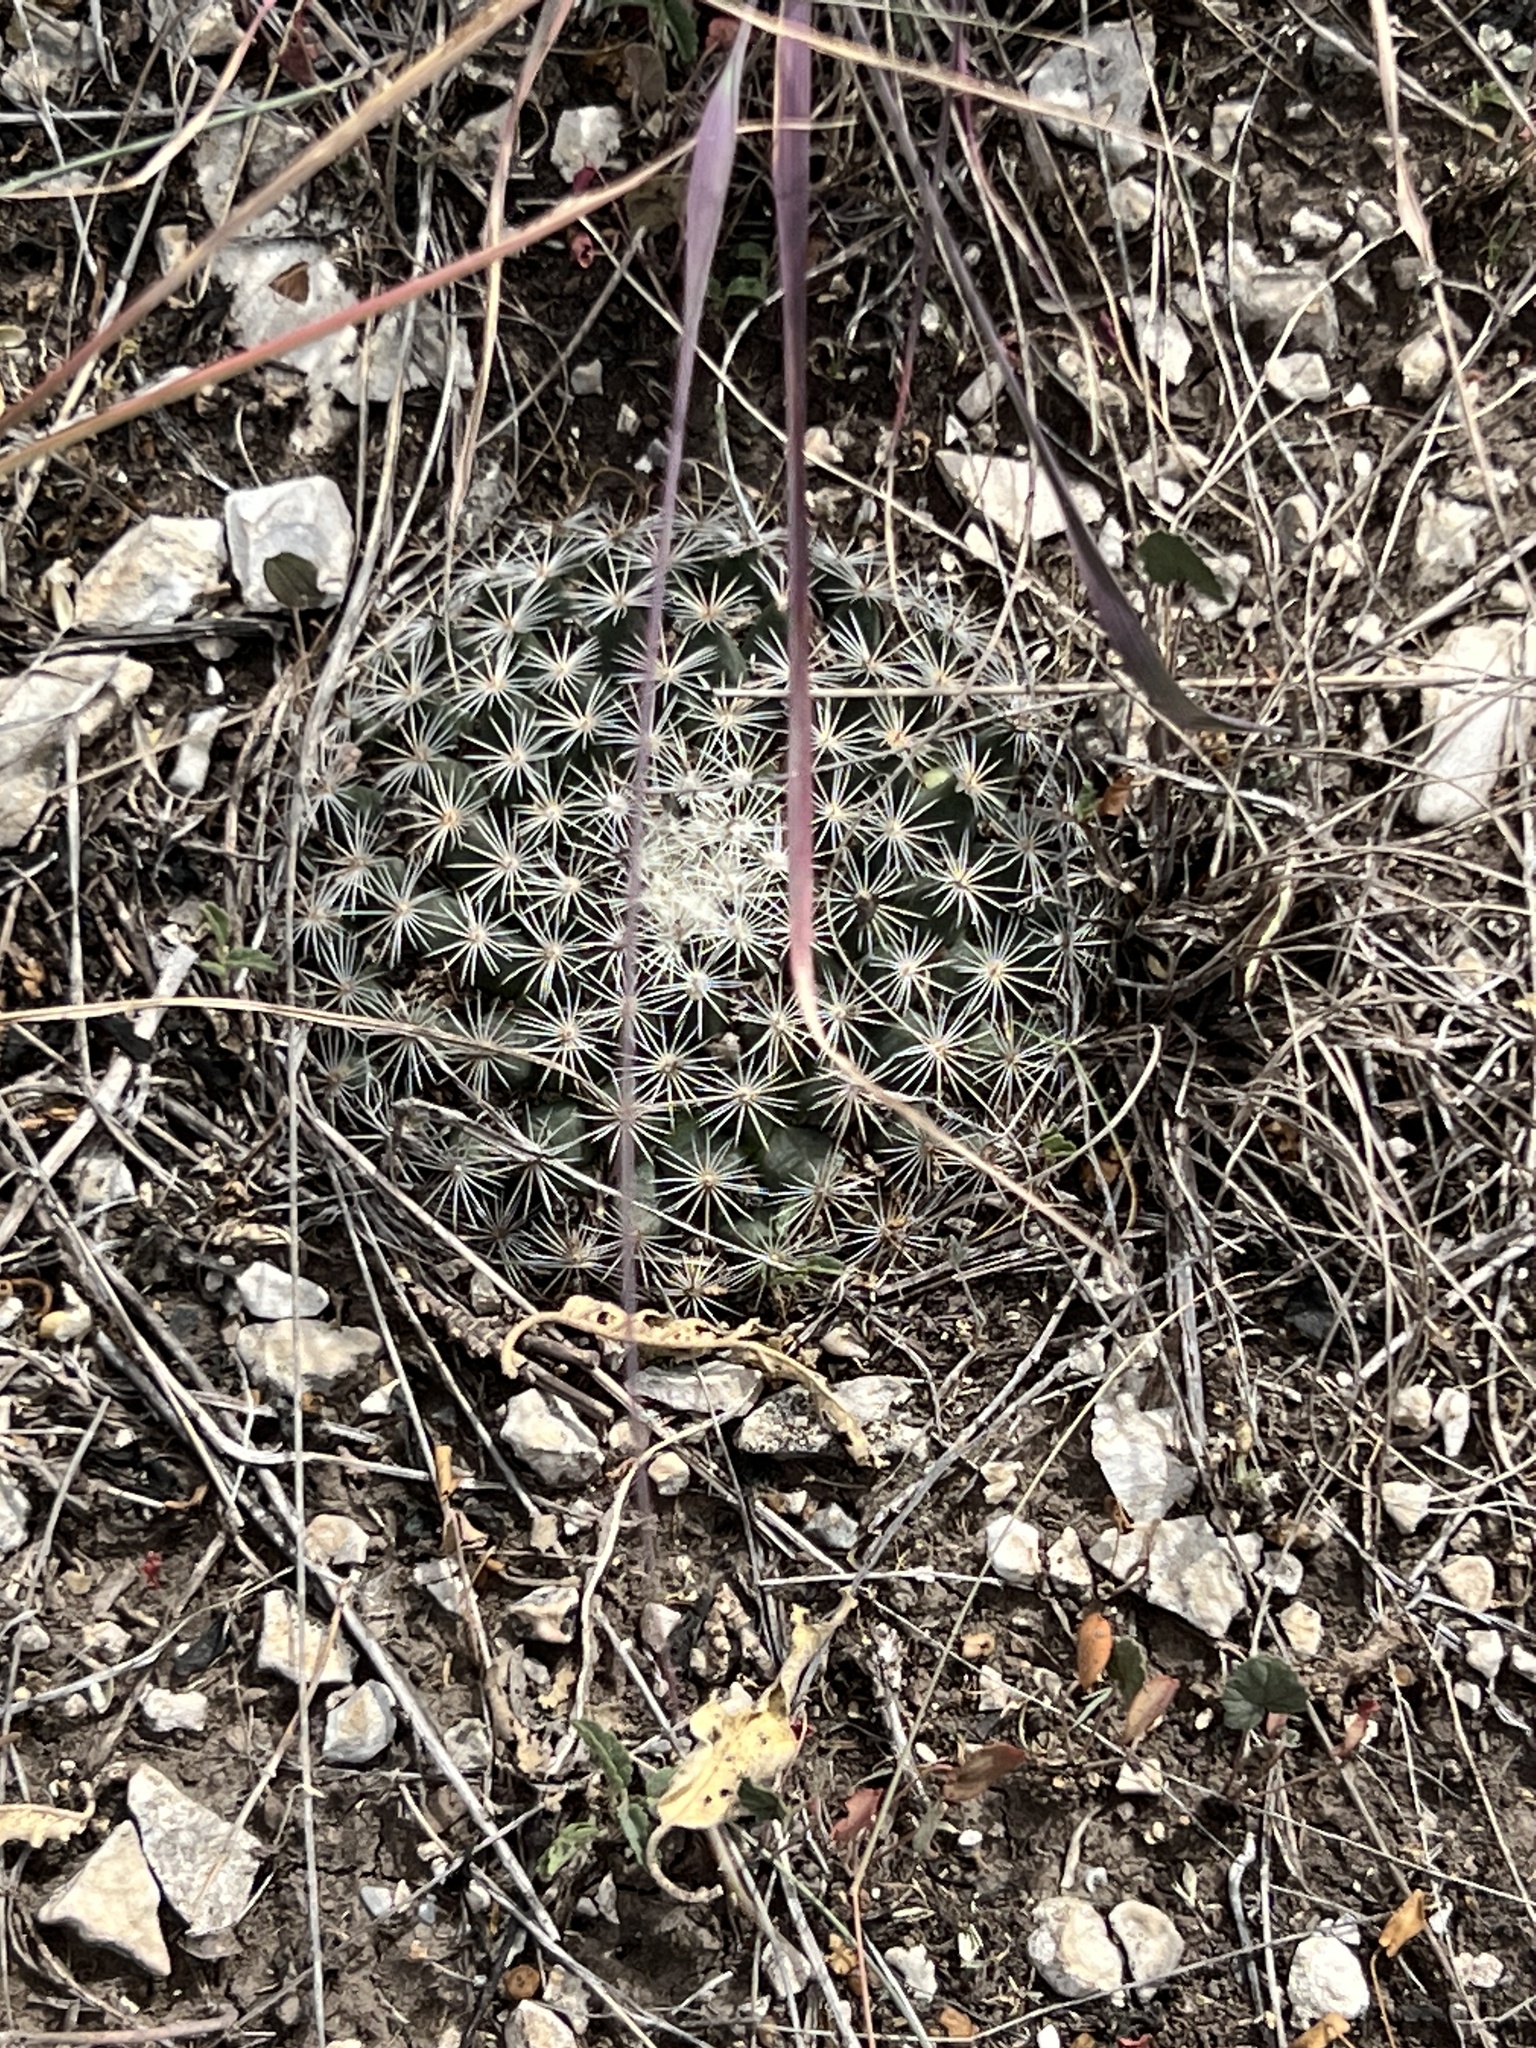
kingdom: Plantae
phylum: Tracheophyta
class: Magnoliopsida
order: Caryophyllales
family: Cactaceae
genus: Mammillaria
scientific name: Mammillaria heyderi
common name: Little nipple cactus
